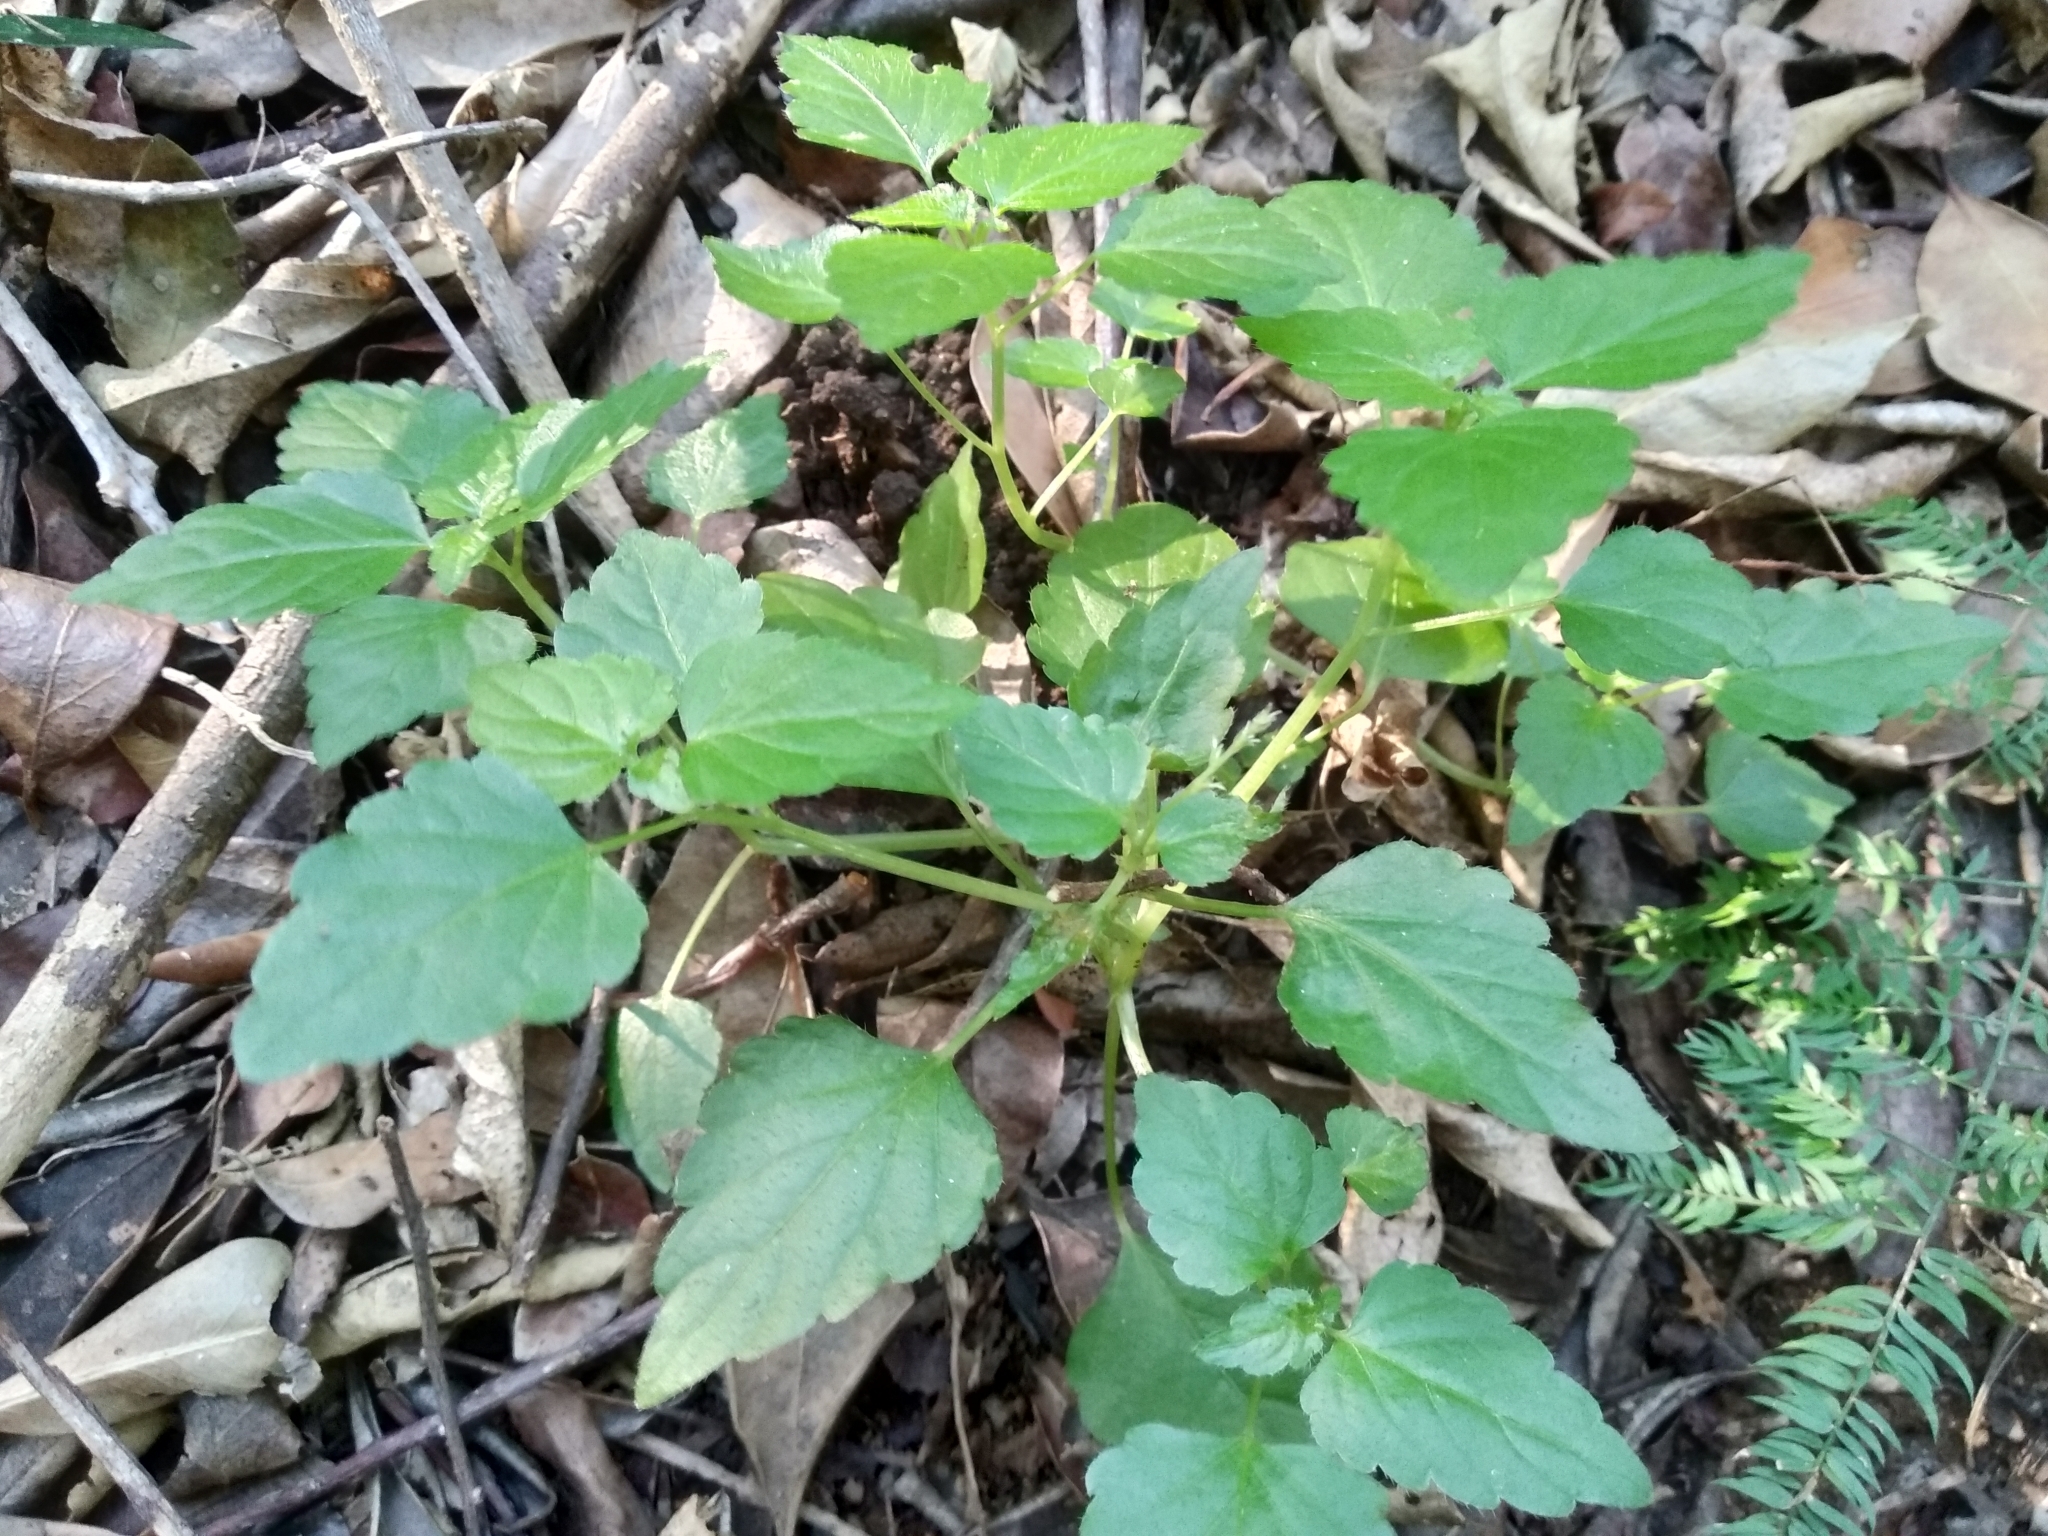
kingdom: Plantae
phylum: Tracheophyta
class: Magnoliopsida
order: Malpighiales
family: Euphorbiaceae
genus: Leidesia
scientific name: Leidesia procumbens
